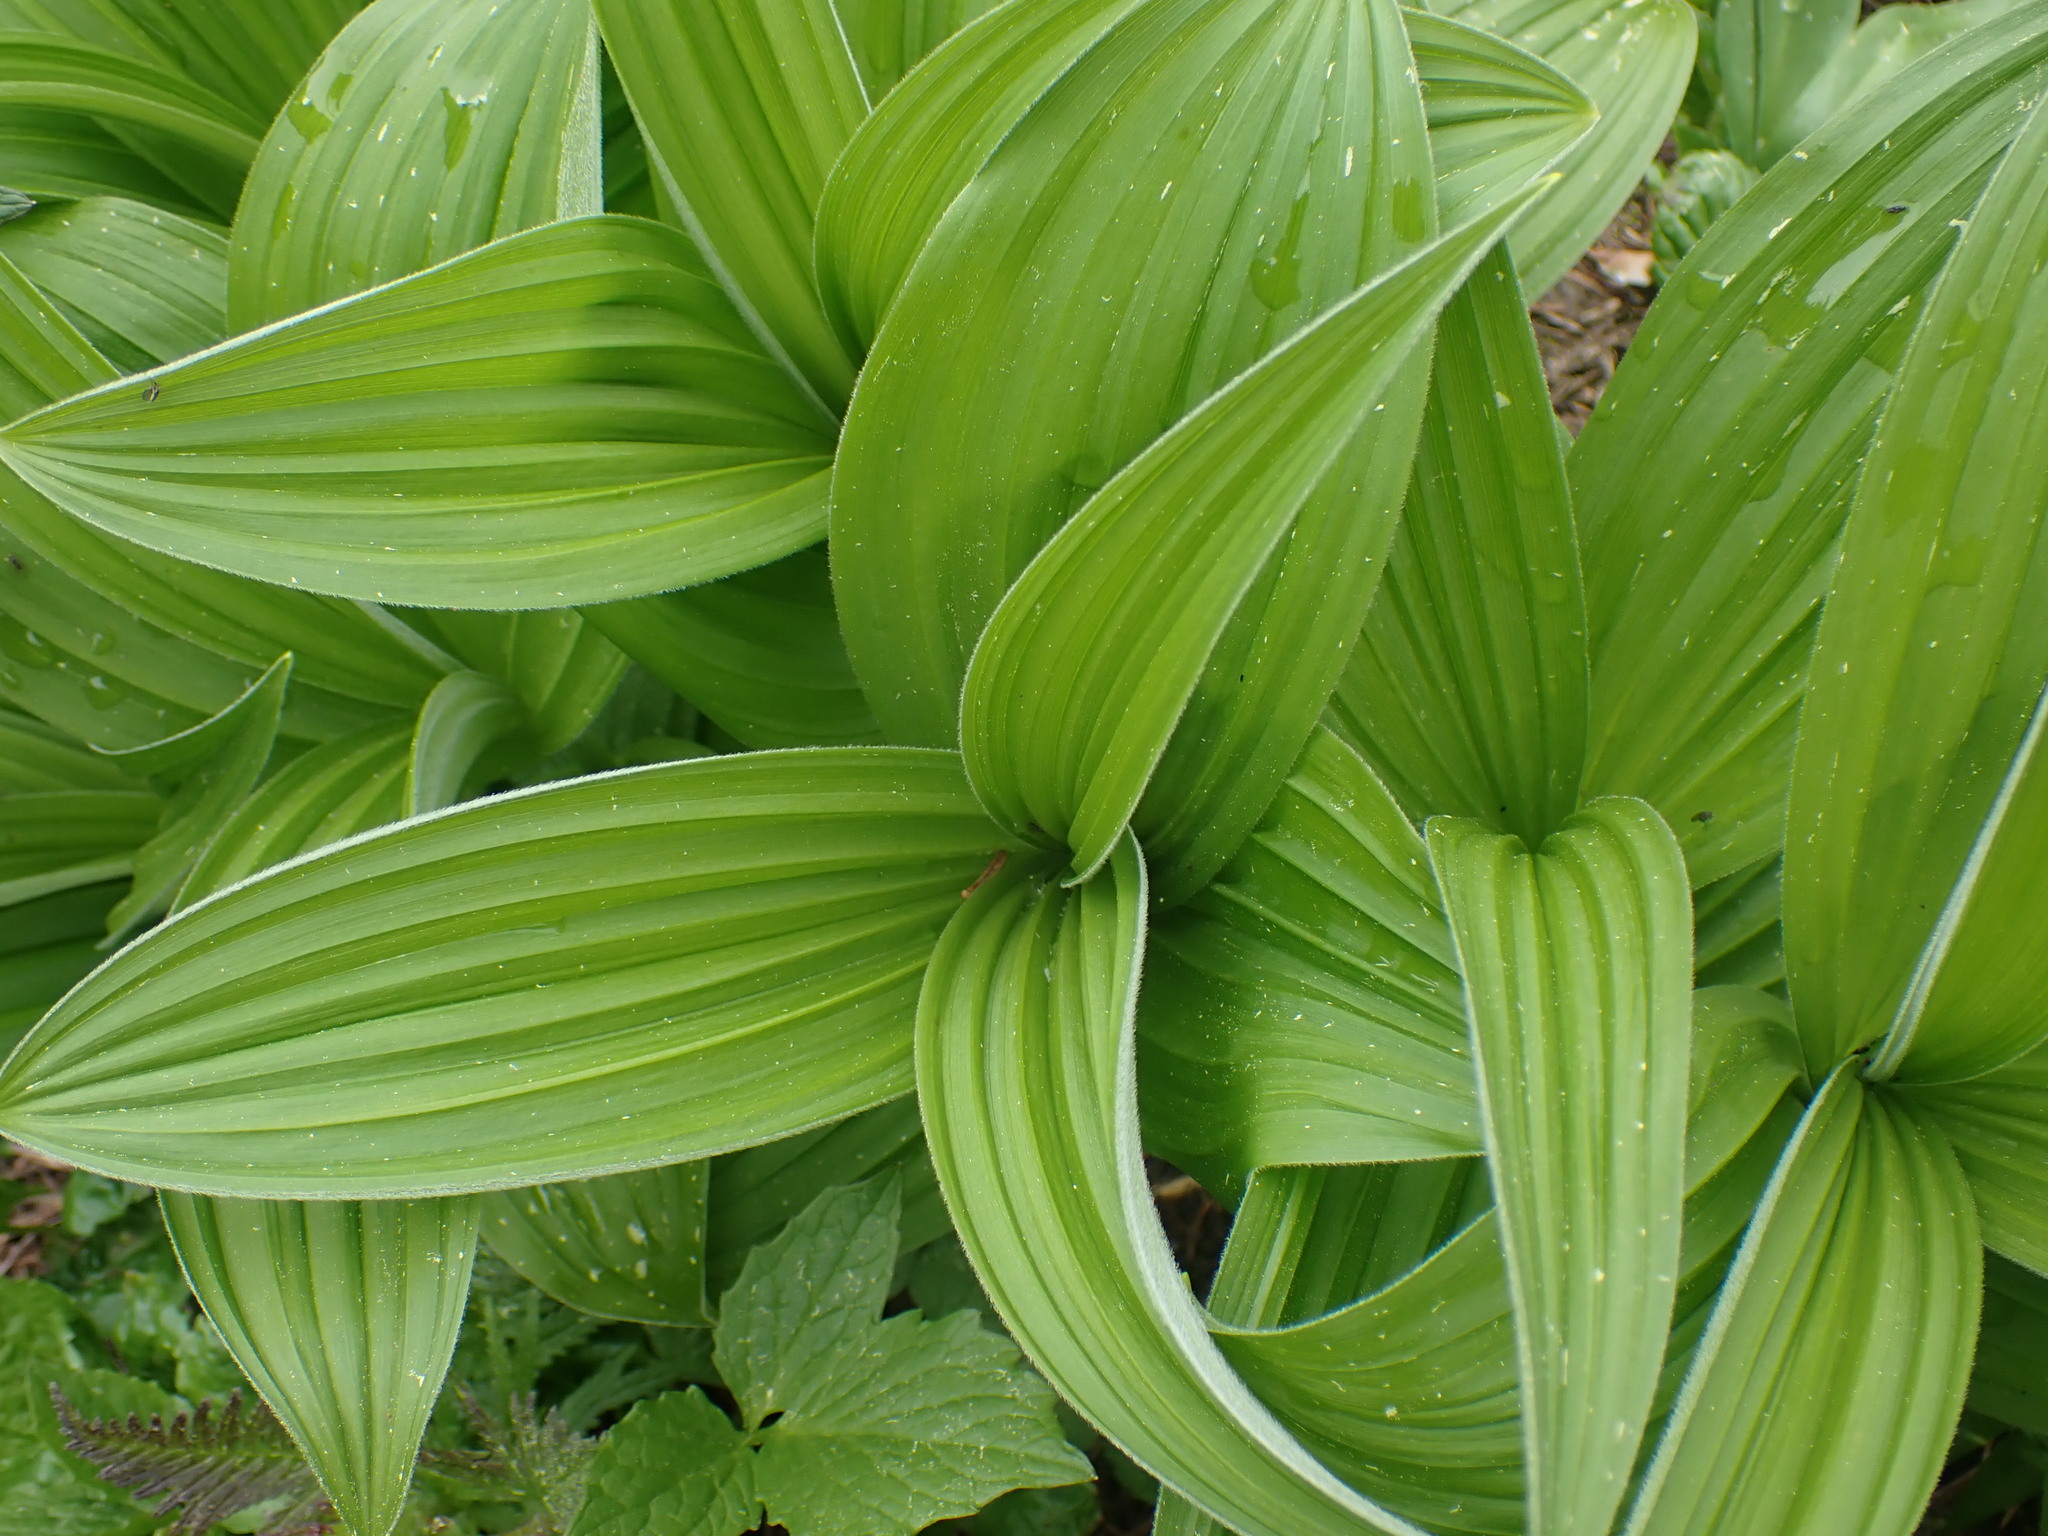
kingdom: Plantae
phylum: Tracheophyta
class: Liliopsida
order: Liliales
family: Melanthiaceae
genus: Veratrum
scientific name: Veratrum viride
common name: American false hellebore
